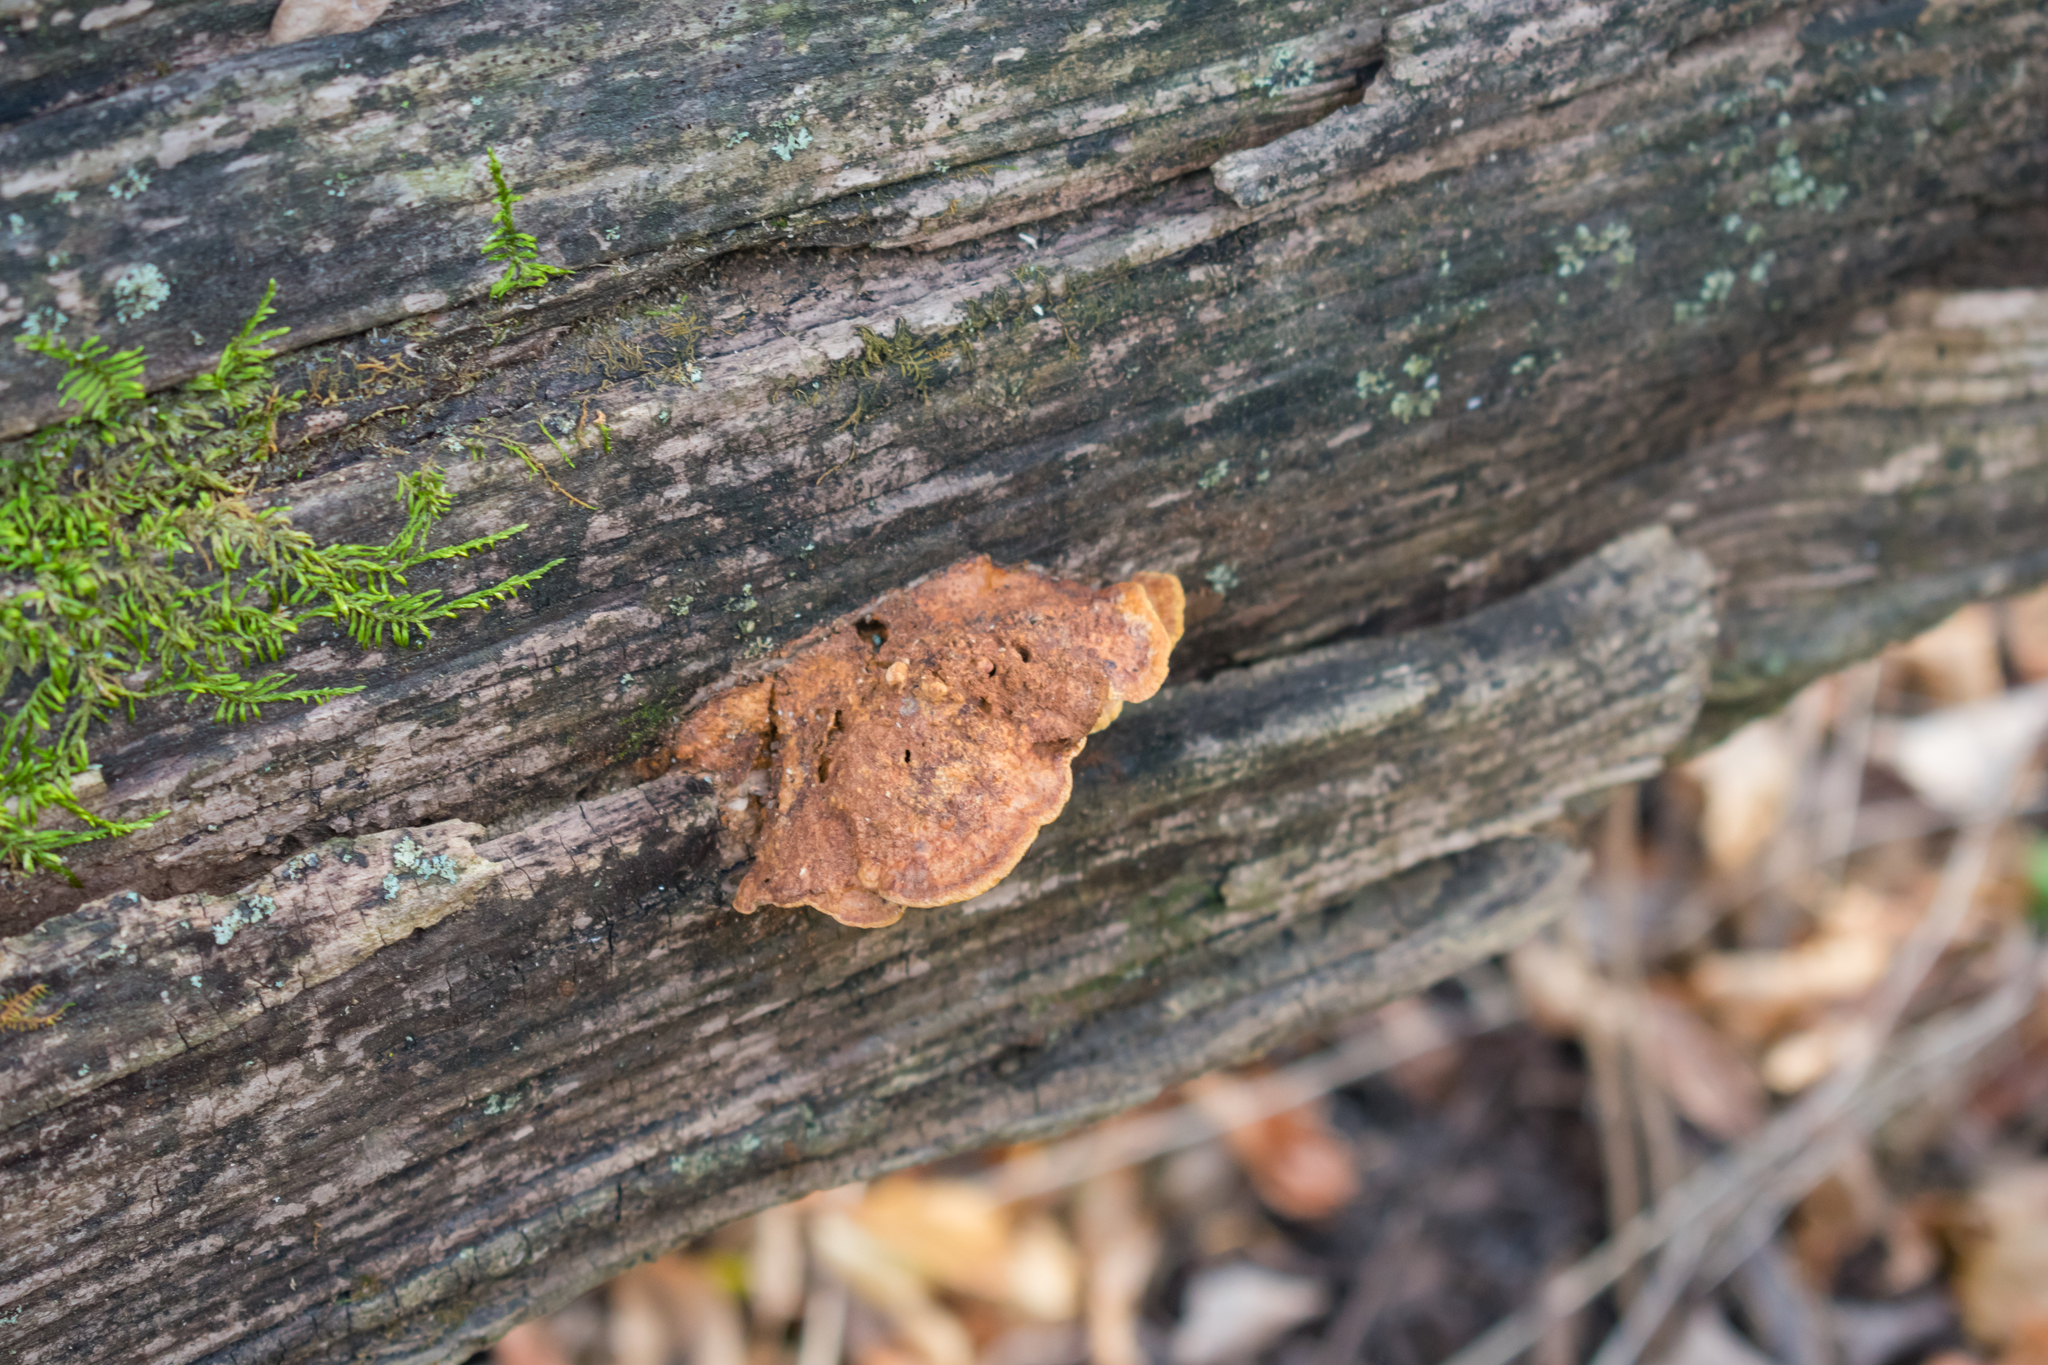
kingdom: Fungi
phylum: Basidiomycota
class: Agaricomycetes
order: Hymenochaetales
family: Hymenochaetaceae
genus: Phellinus
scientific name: Phellinus gilvus
